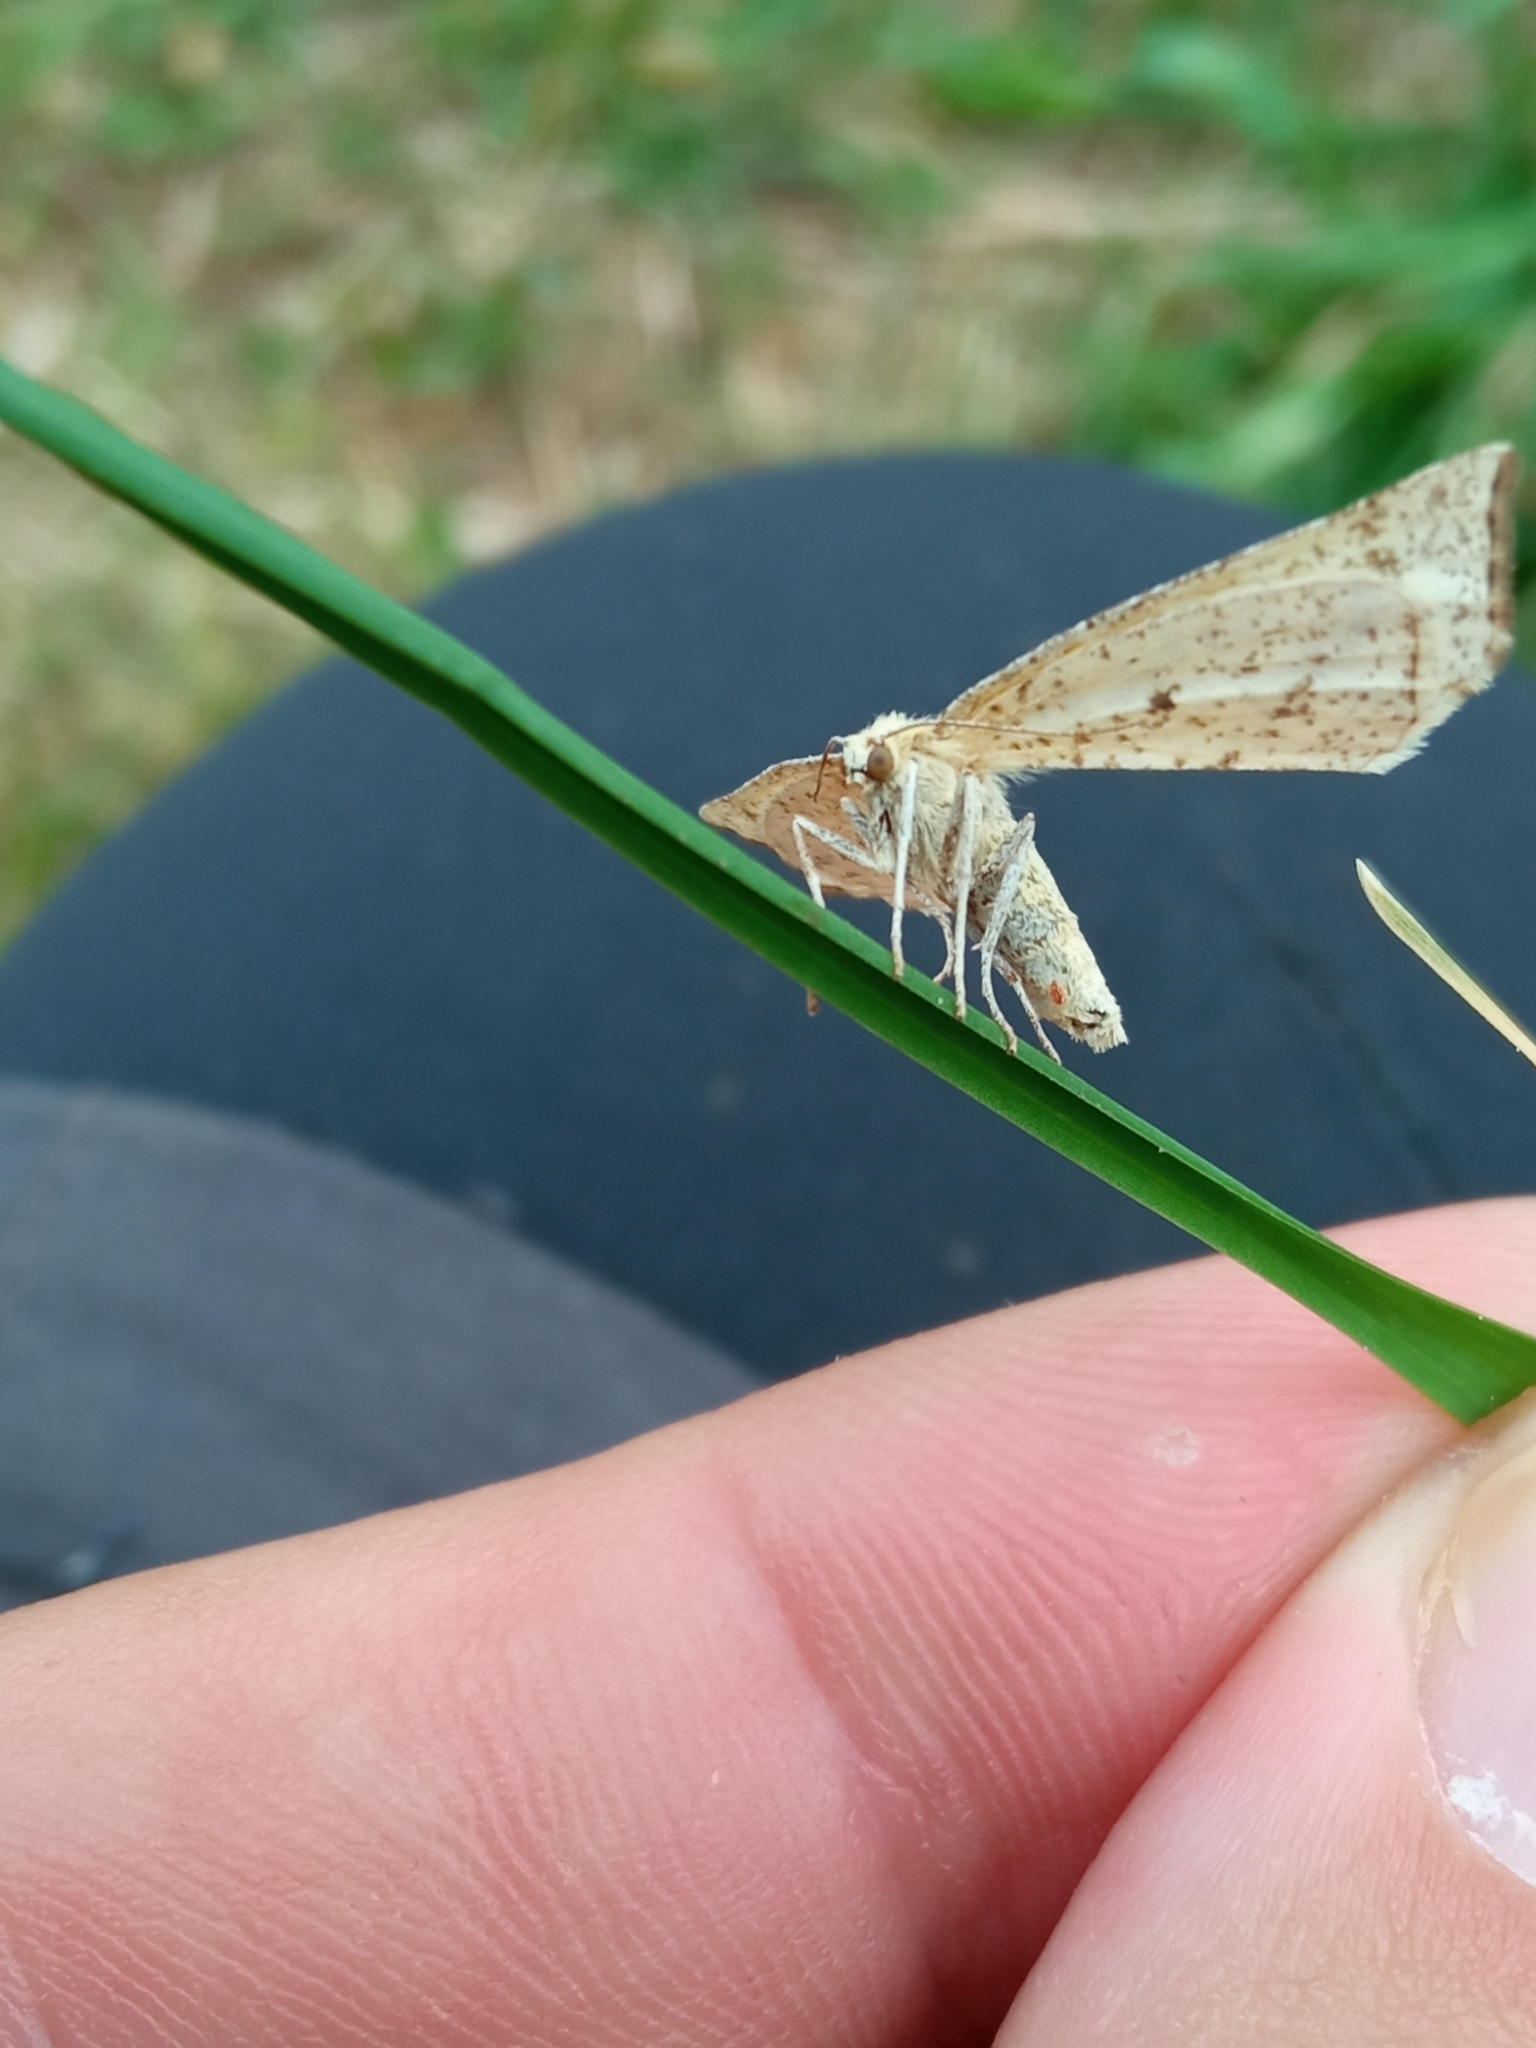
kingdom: Animalia
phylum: Arthropoda
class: Insecta
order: Lepidoptera
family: Geometridae
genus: Hypoxystis
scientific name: Hypoxystis pluviaria
